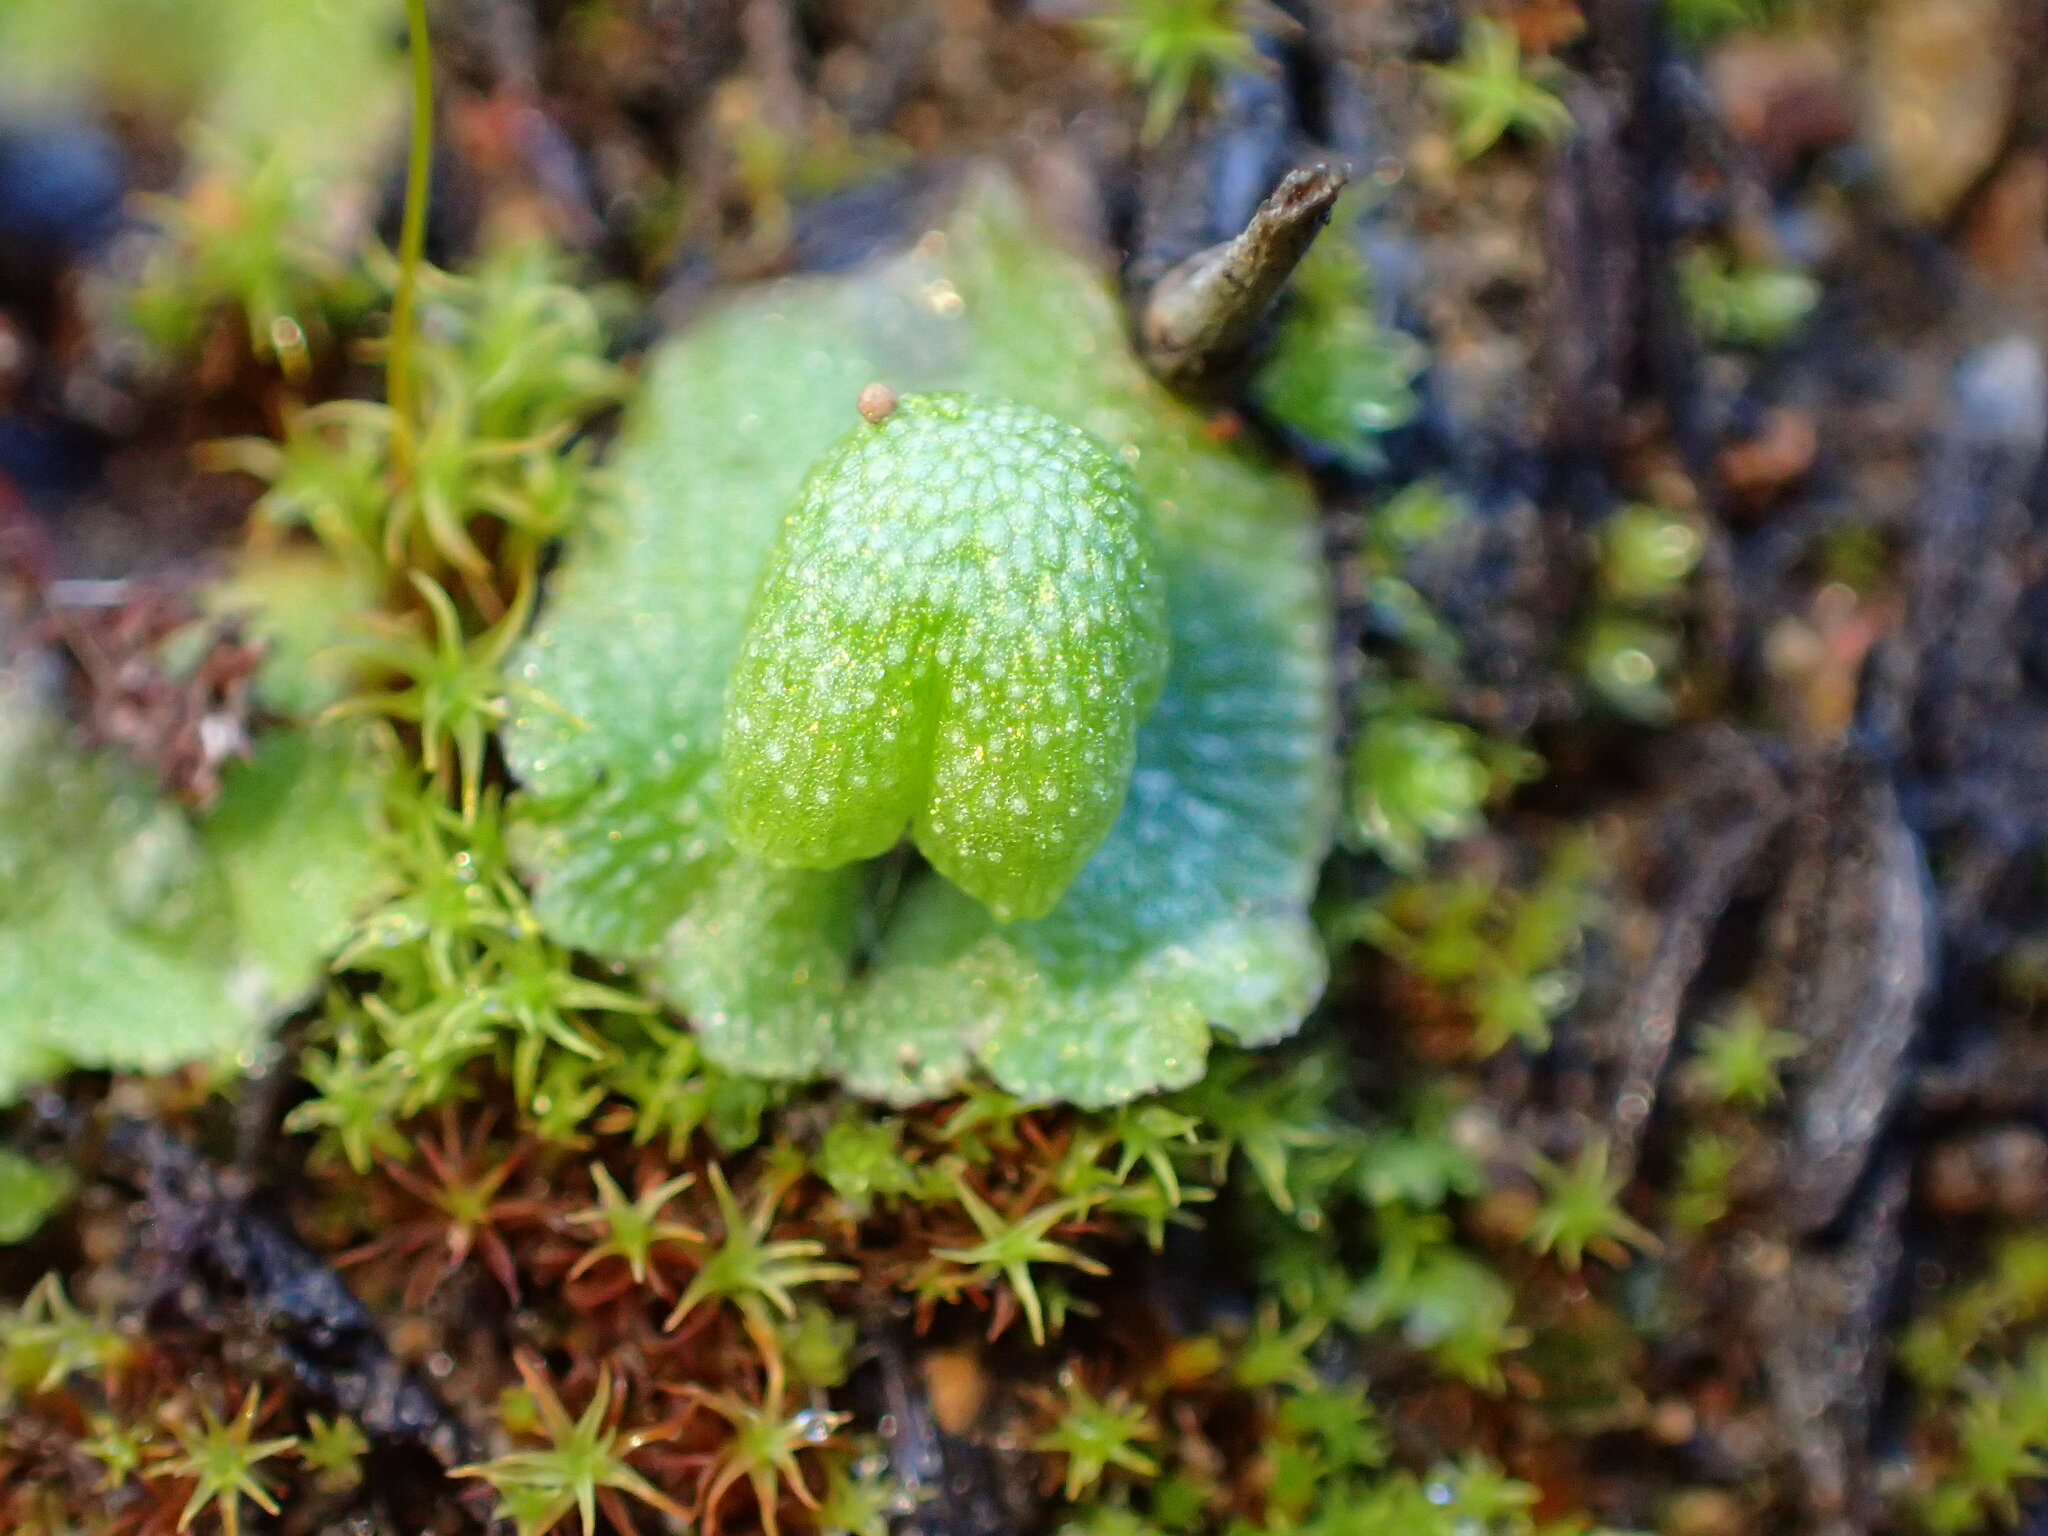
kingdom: Plantae
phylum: Marchantiophyta
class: Marchantiopsida
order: Marchantiales
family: Aytoniaceae
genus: Asterella
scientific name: Asterella californica
